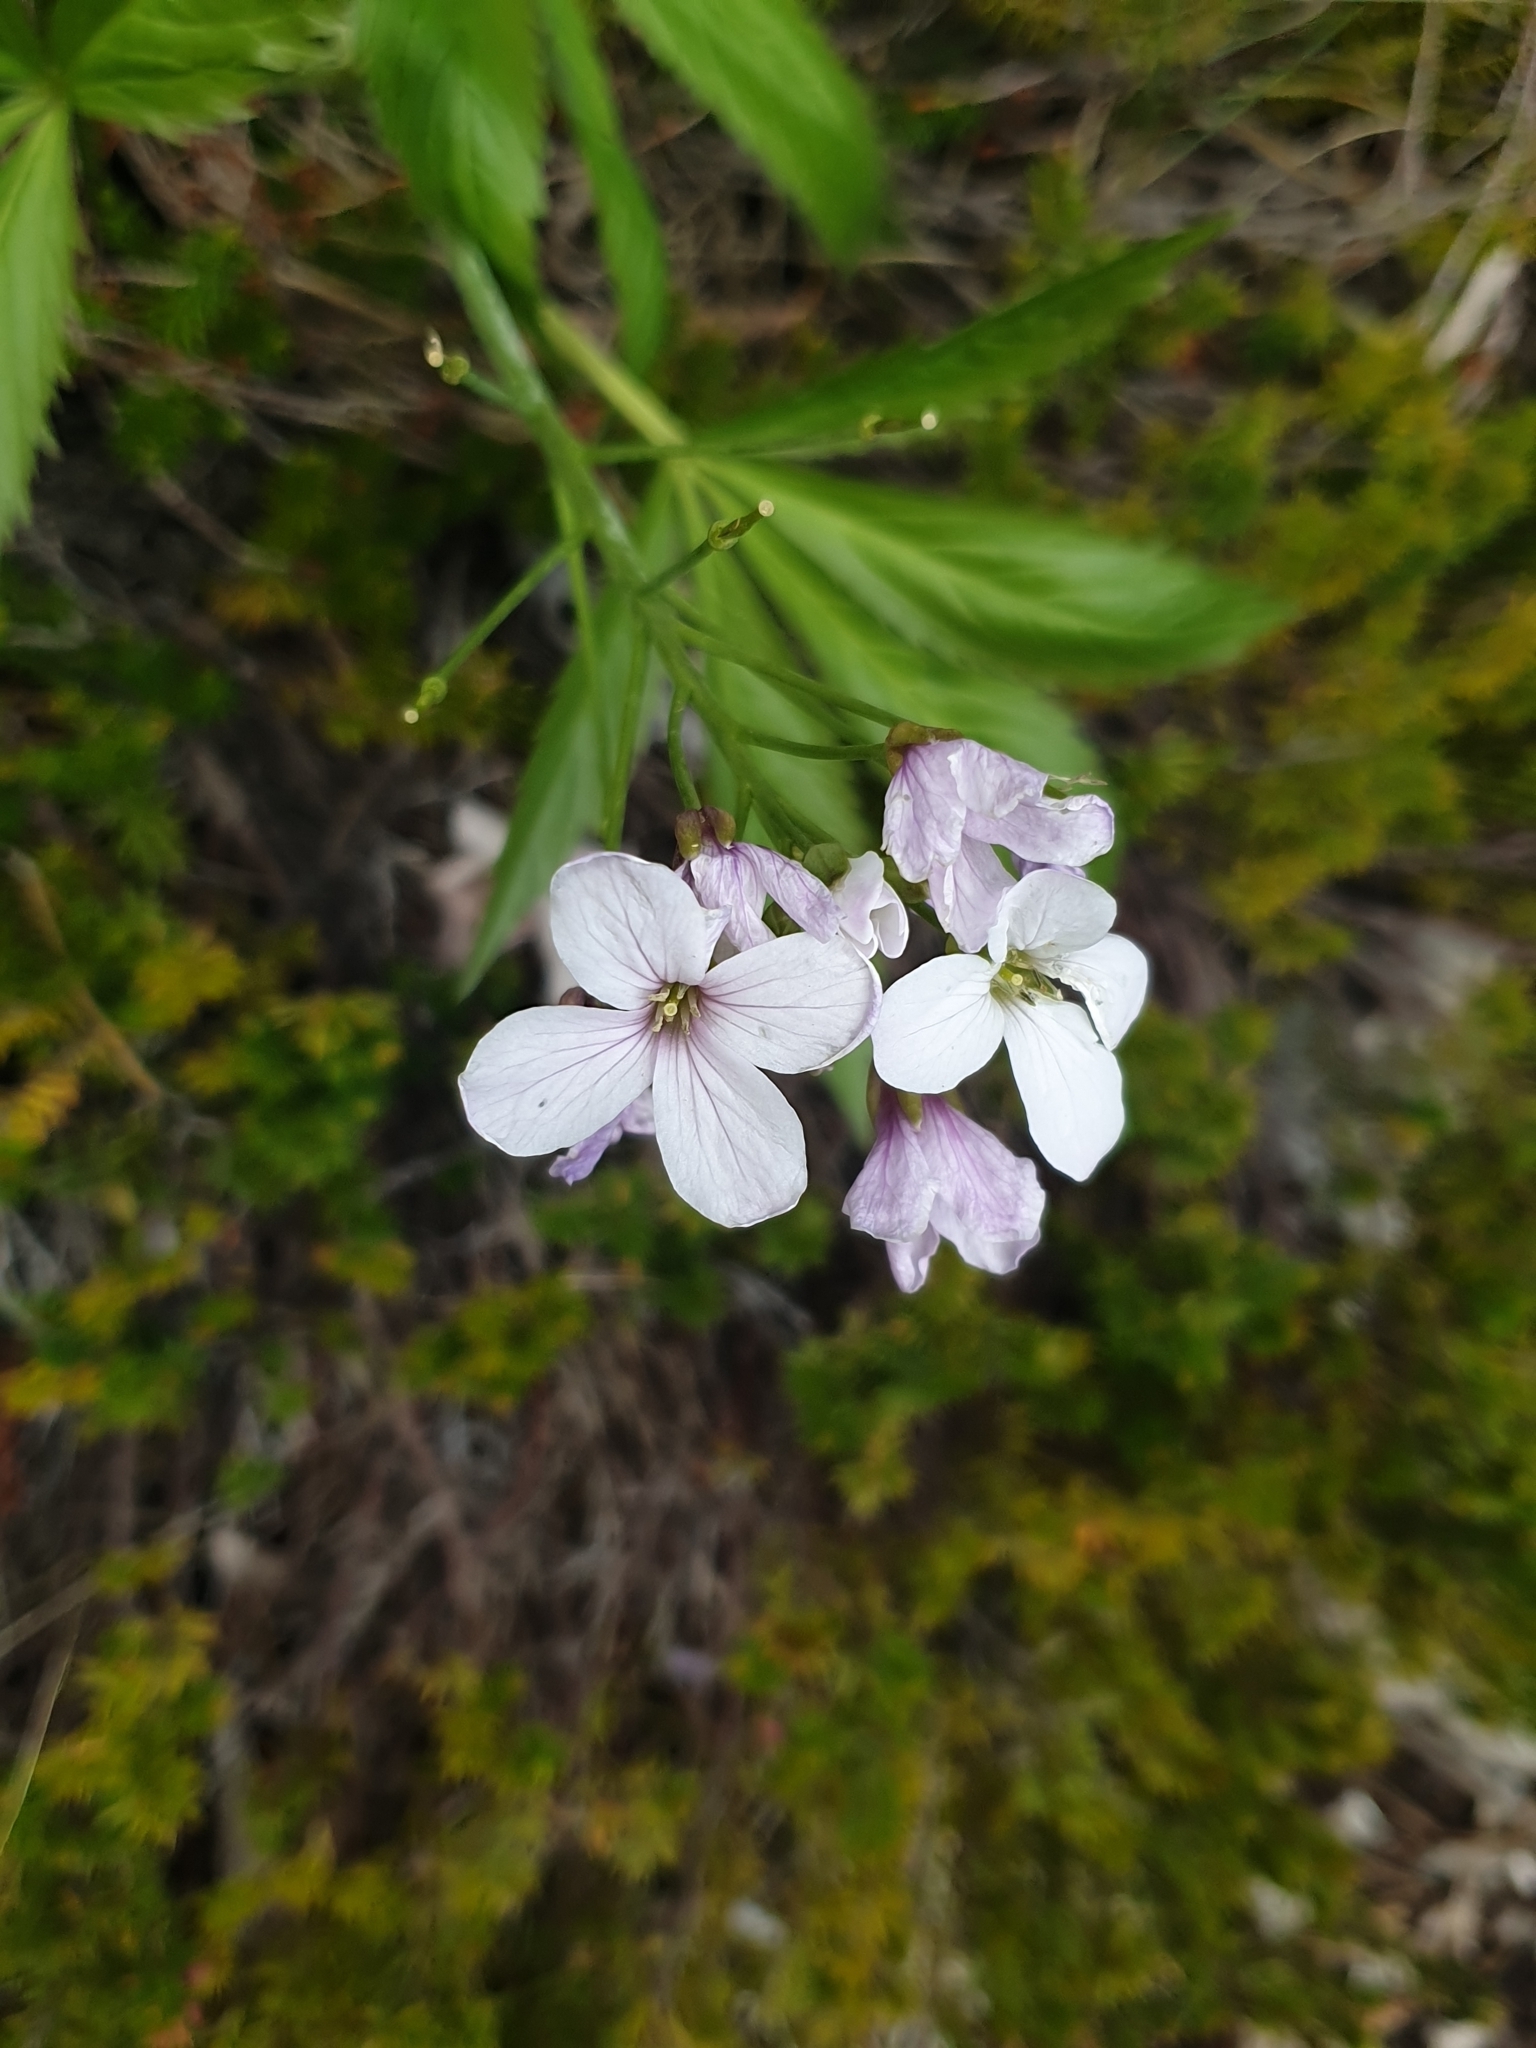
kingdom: Plantae
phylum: Tracheophyta
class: Magnoliopsida
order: Brassicales
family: Brassicaceae
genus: Cardamine
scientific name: Cardamine heptaphylla
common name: Pinnate coralroot
